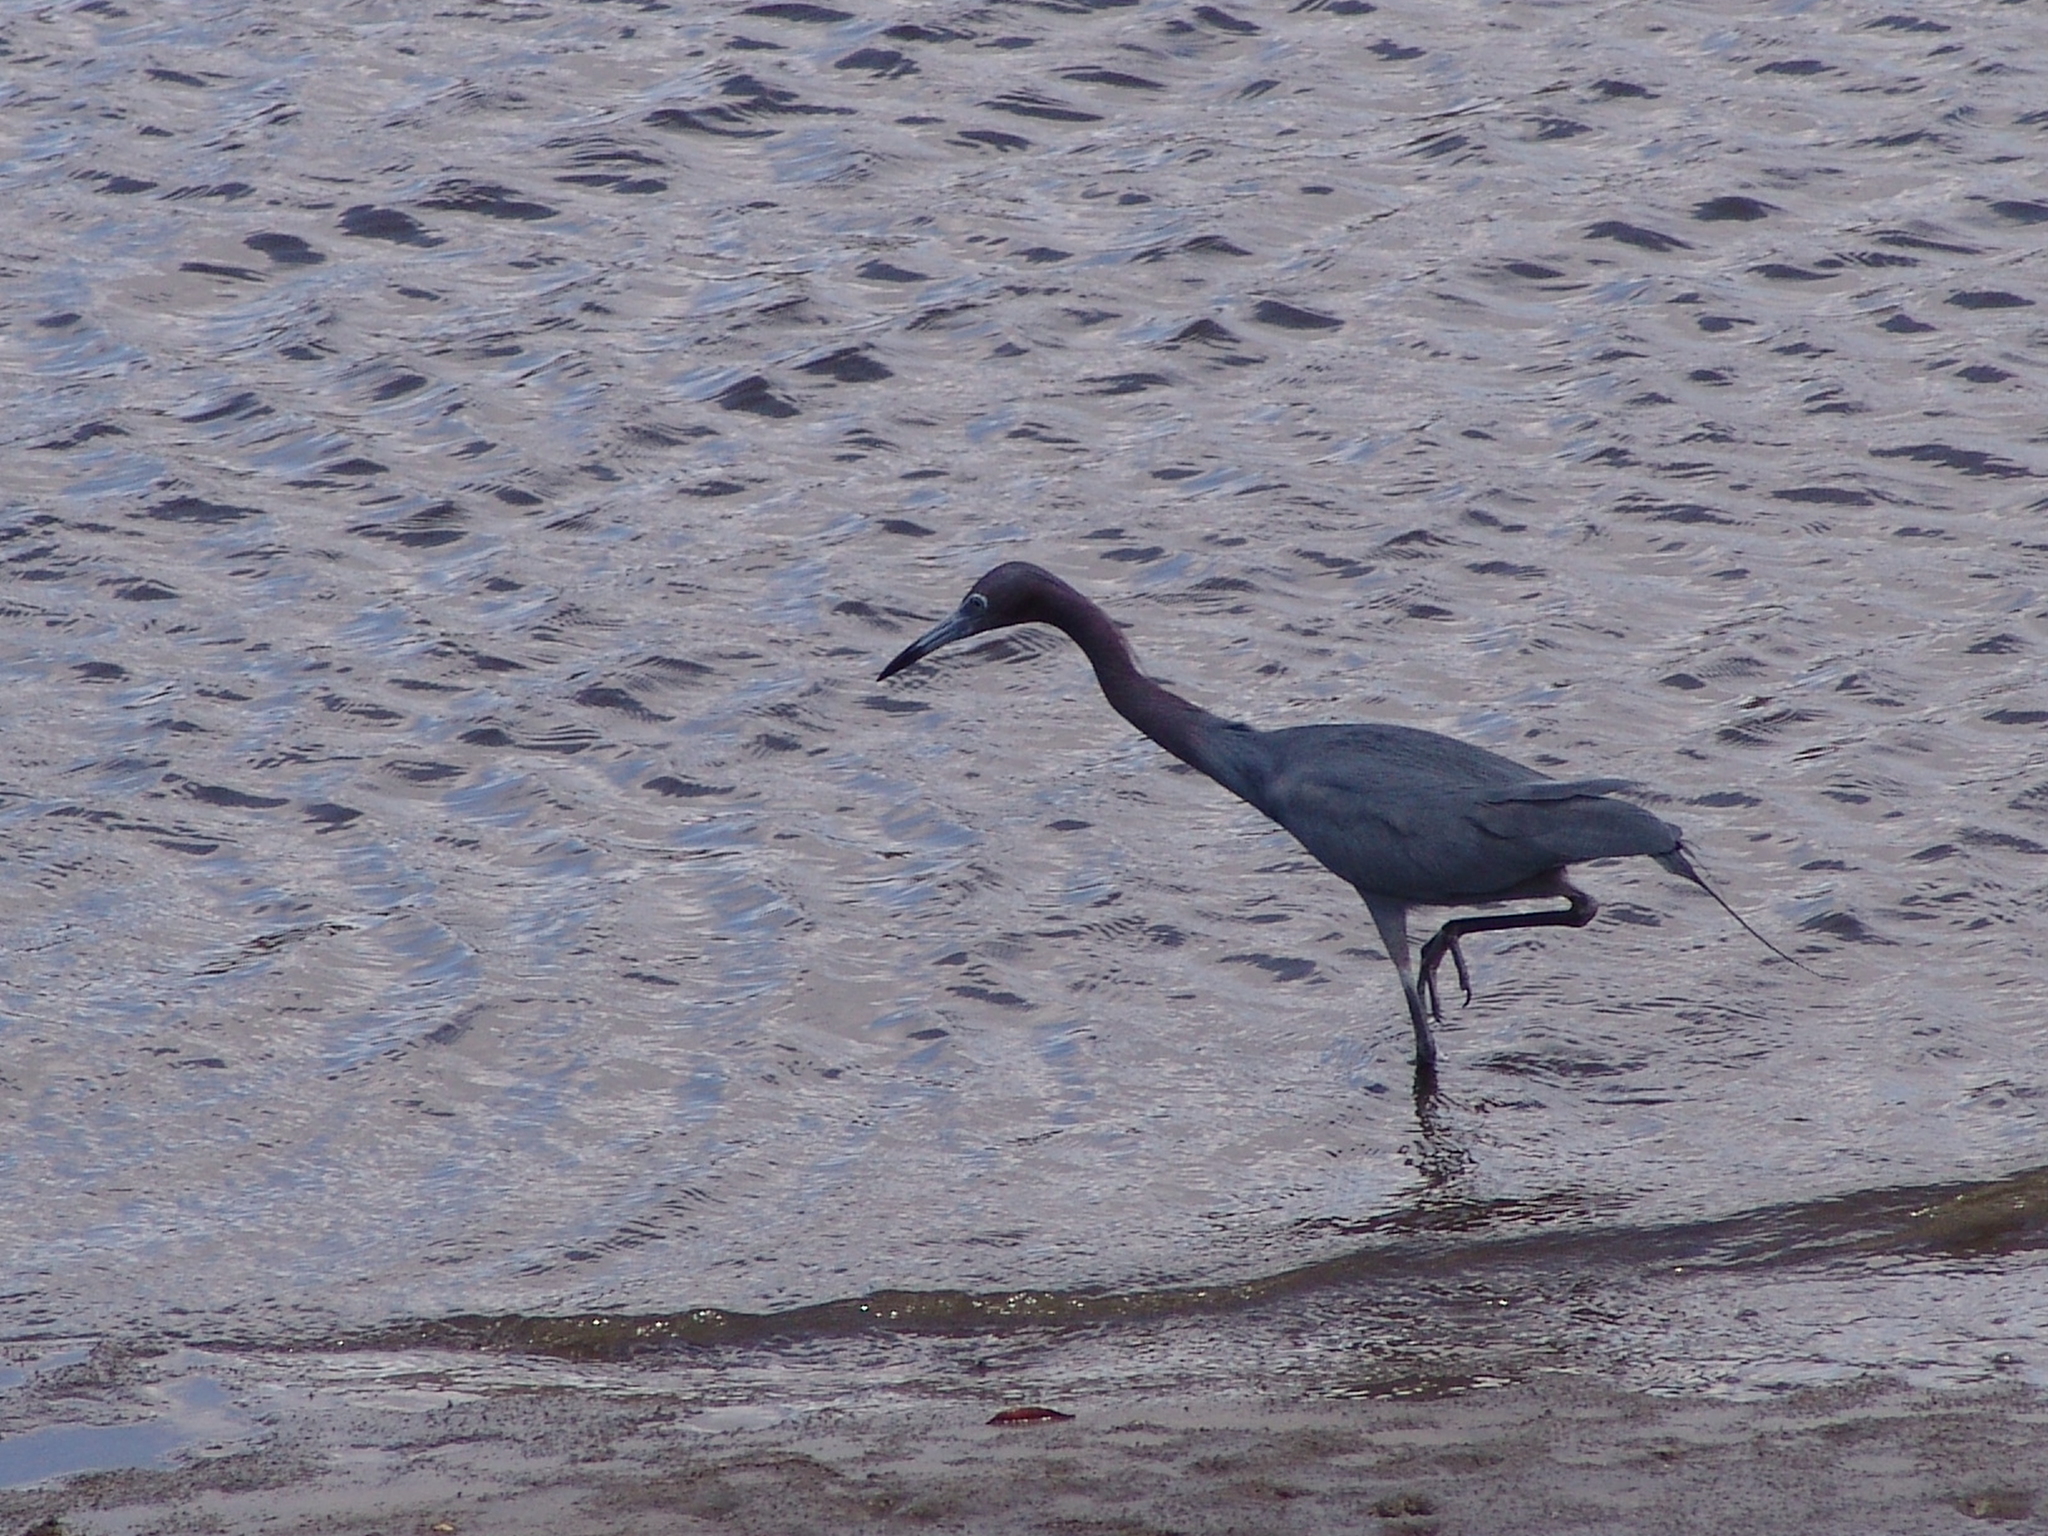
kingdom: Animalia
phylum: Chordata
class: Aves
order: Pelecaniformes
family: Ardeidae
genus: Egretta
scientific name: Egretta caerulea
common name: Little blue heron
